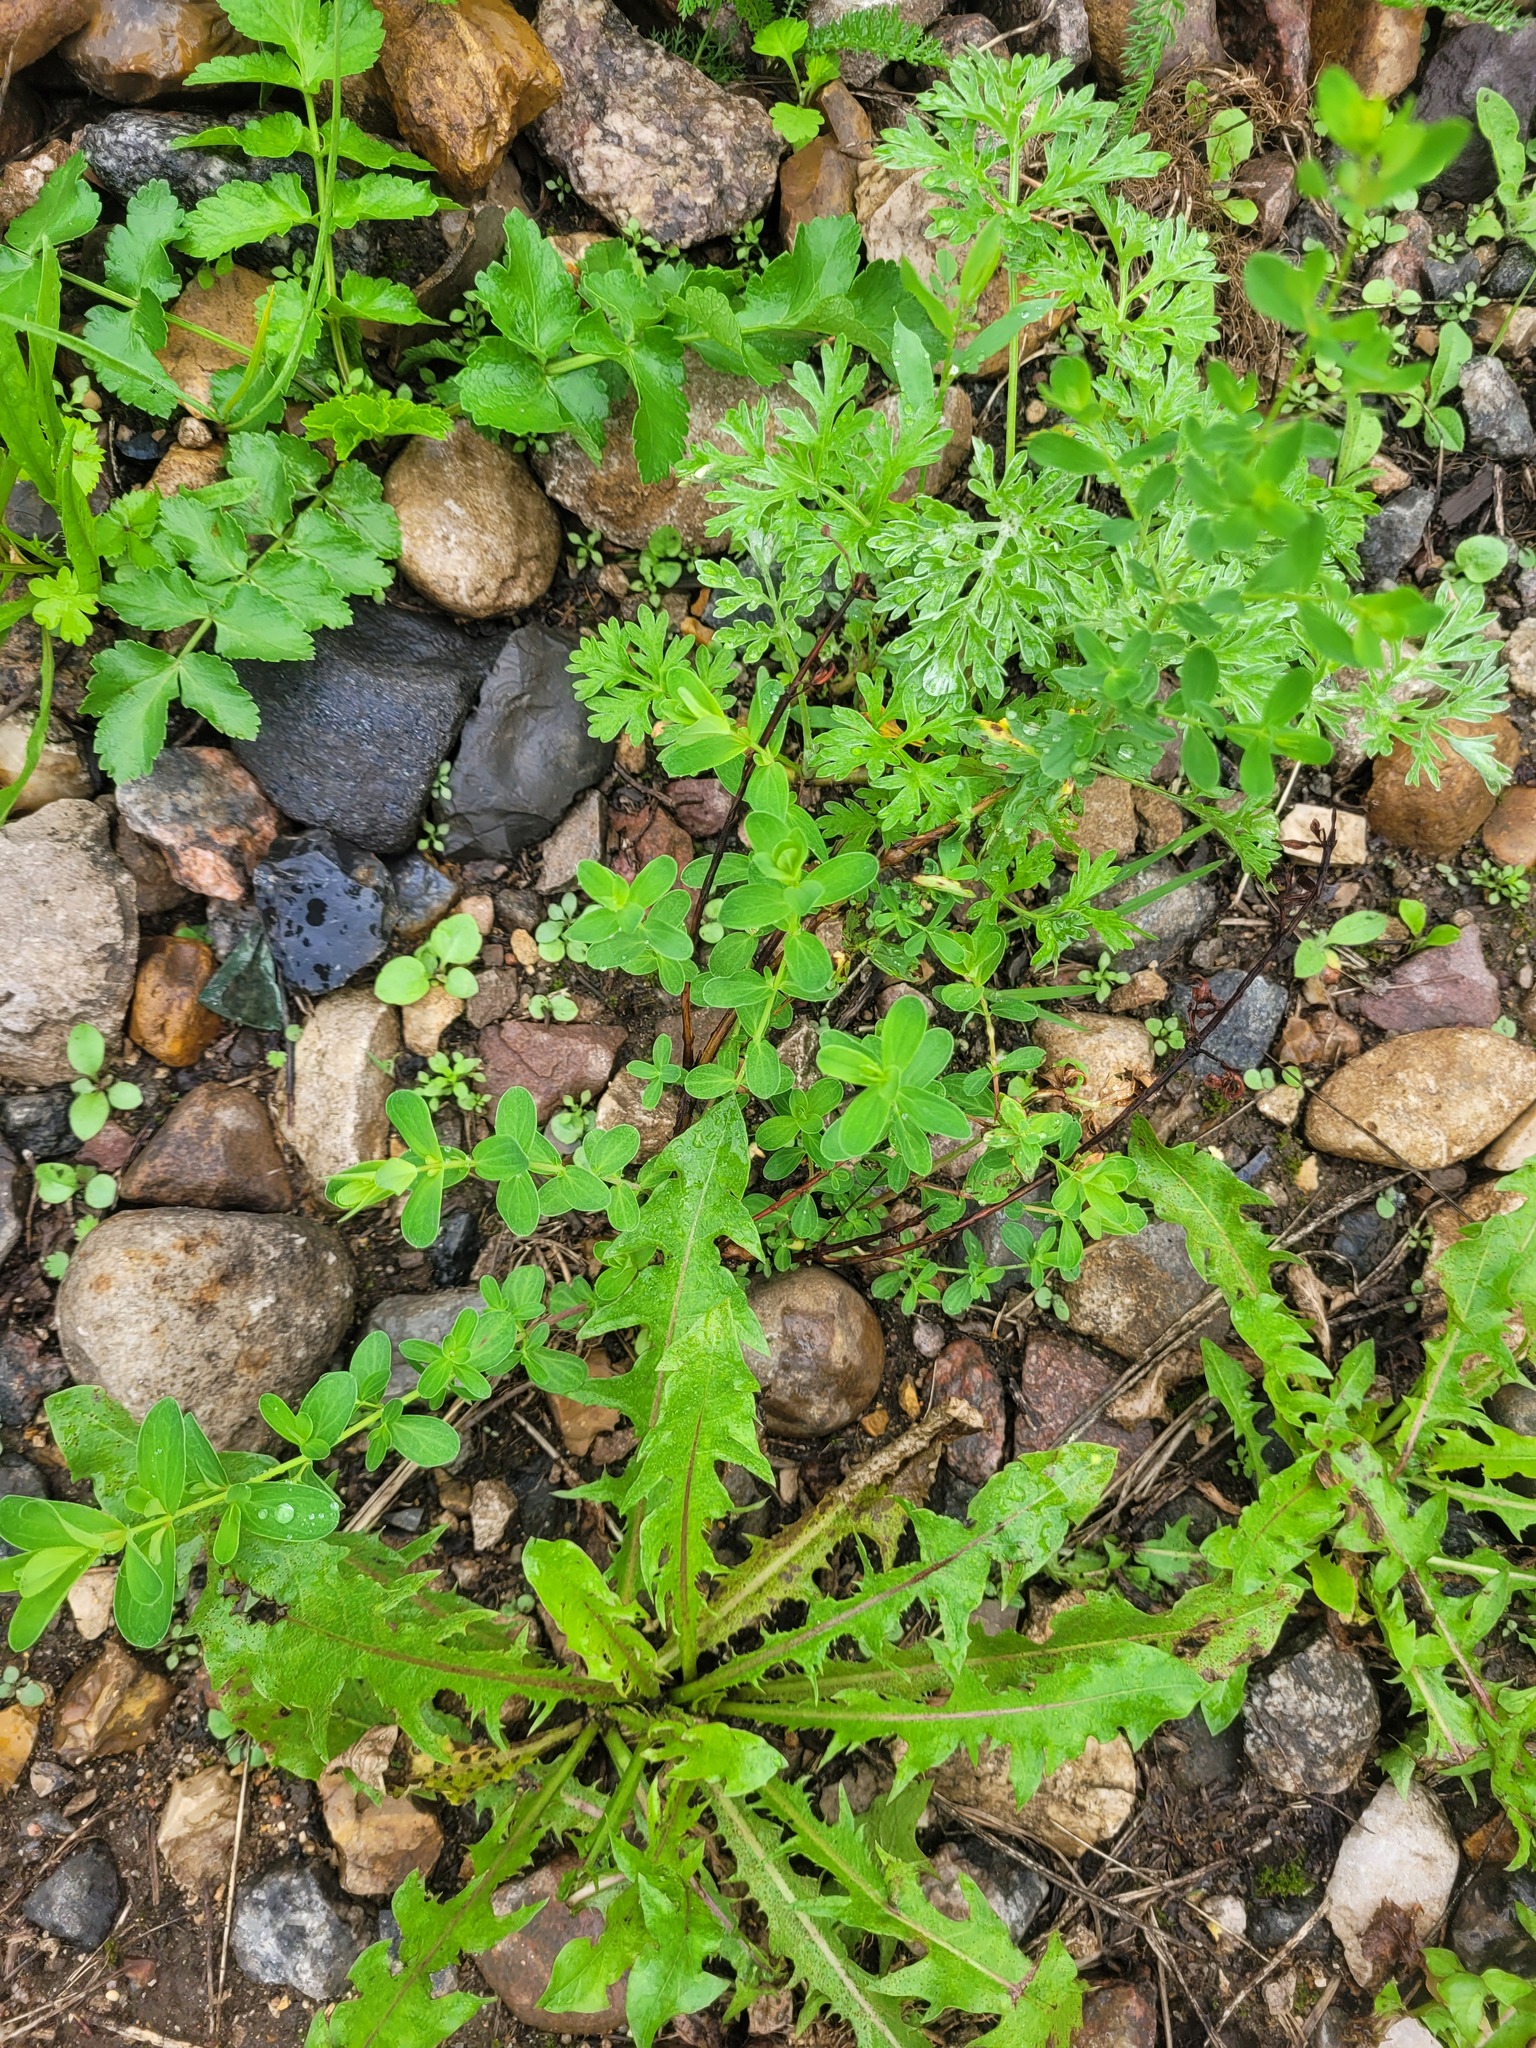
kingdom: Plantae
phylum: Tracheophyta
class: Magnoliopsida
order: Malpighiales
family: Hypericaceae
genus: Hypericum
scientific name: Hypericum perforatum
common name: Common st. johnswort
